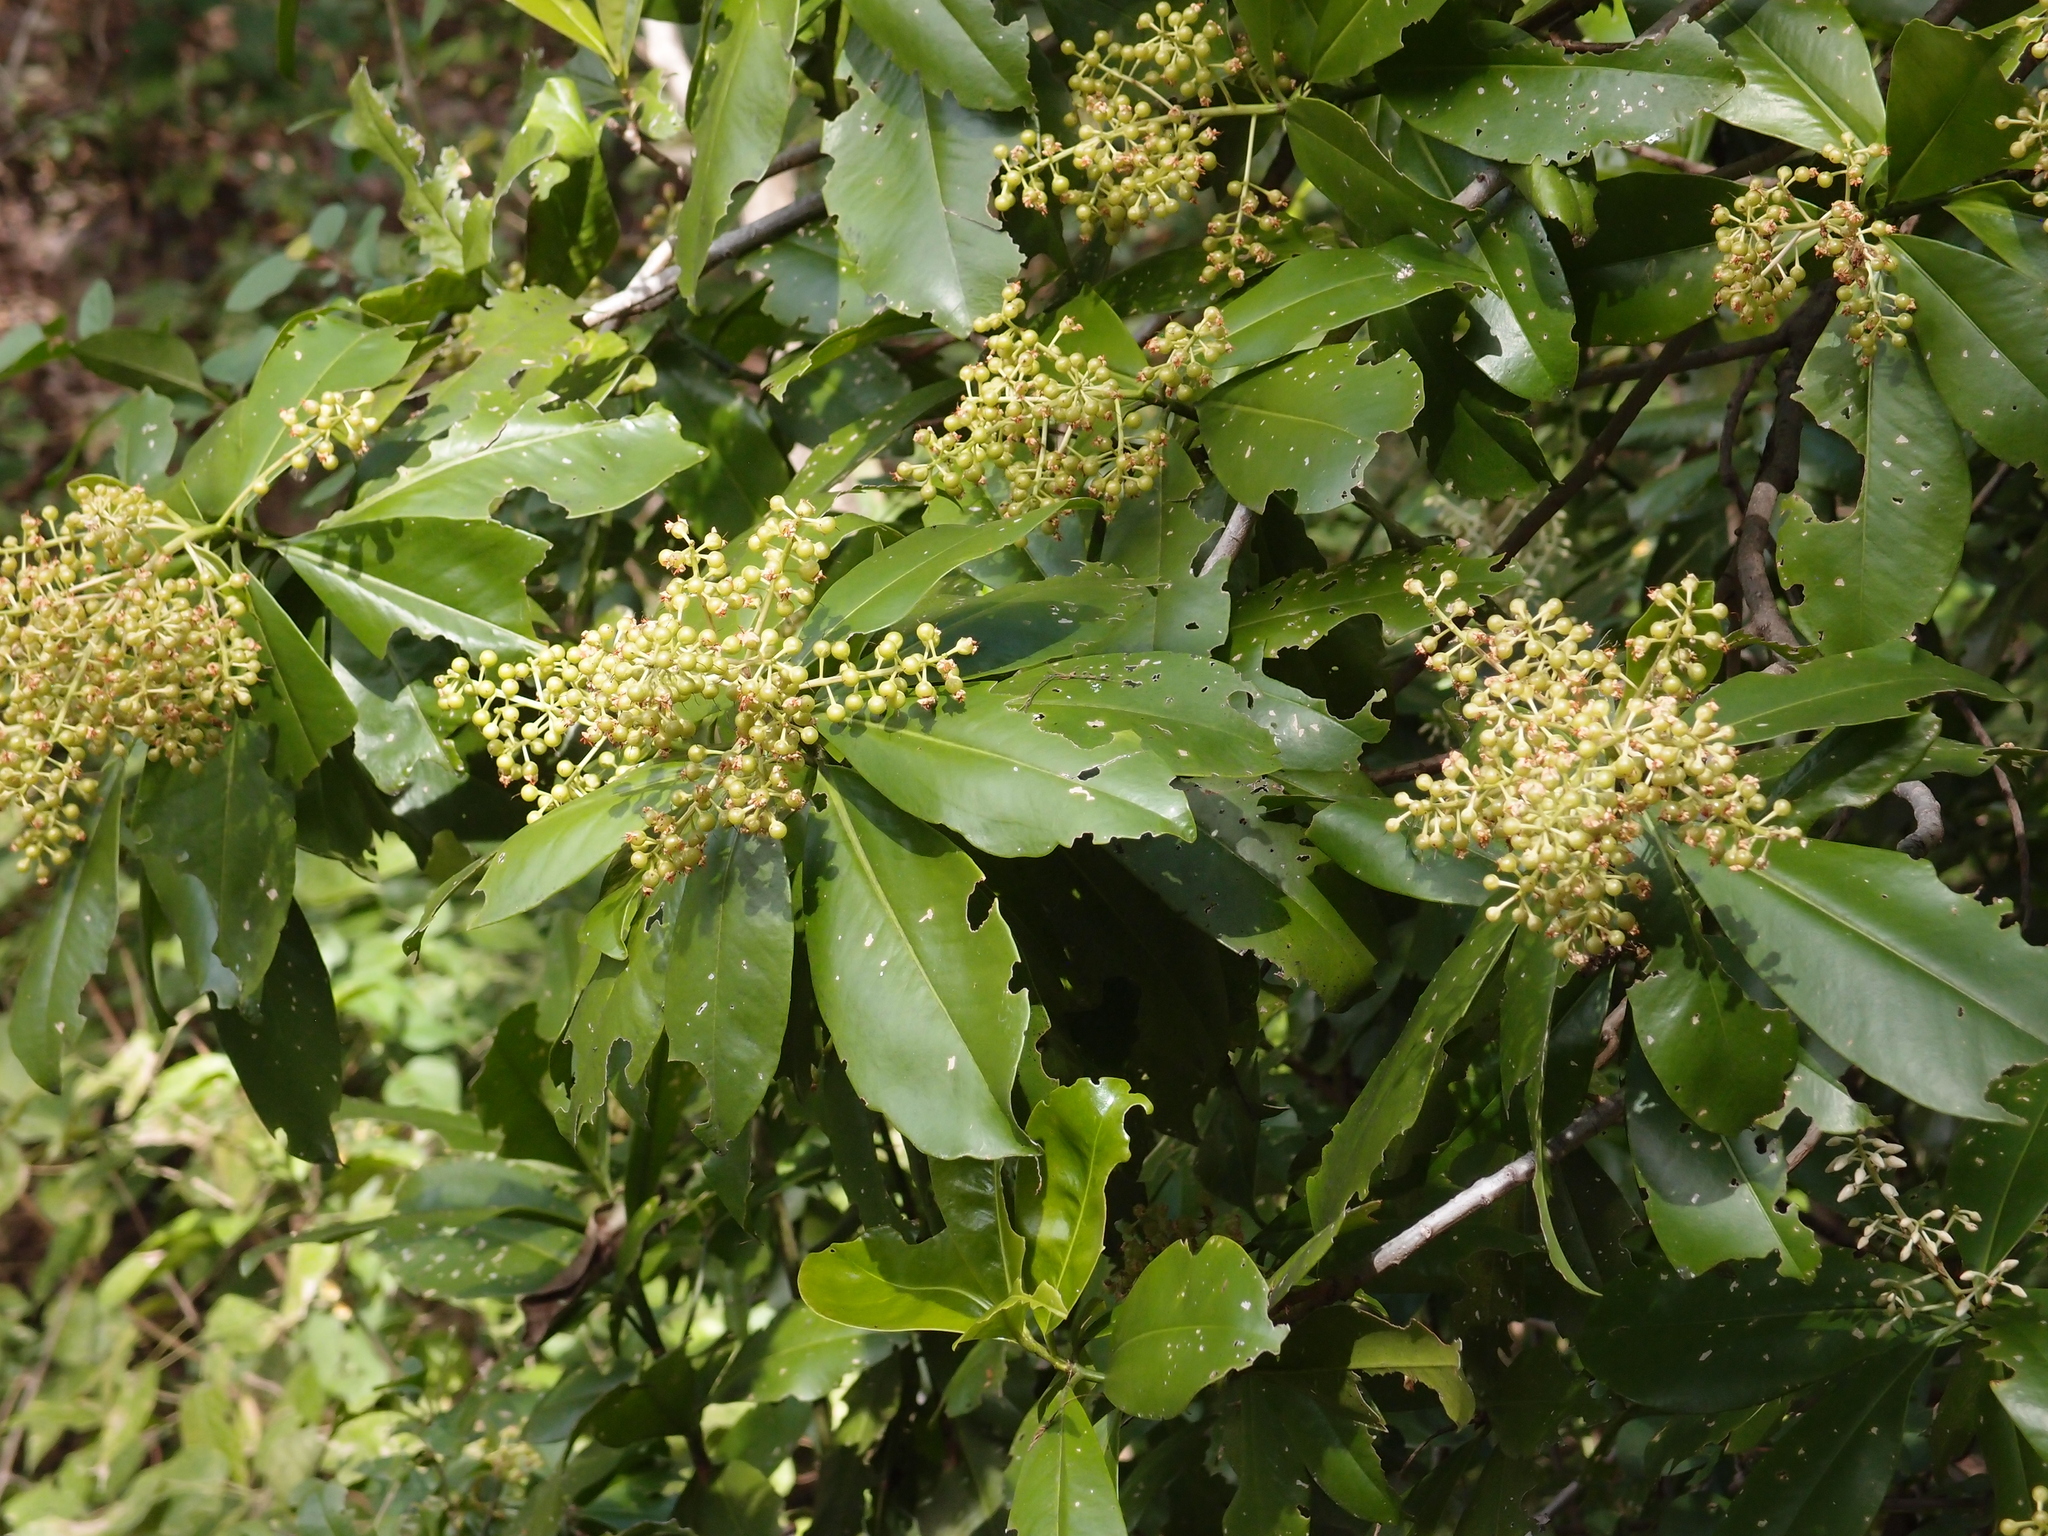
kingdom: Plantae
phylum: Tracheophyta
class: Magnoliopsida
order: Ericales
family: Primulaceae
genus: Ardisia
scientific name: Ardisia revoluta
